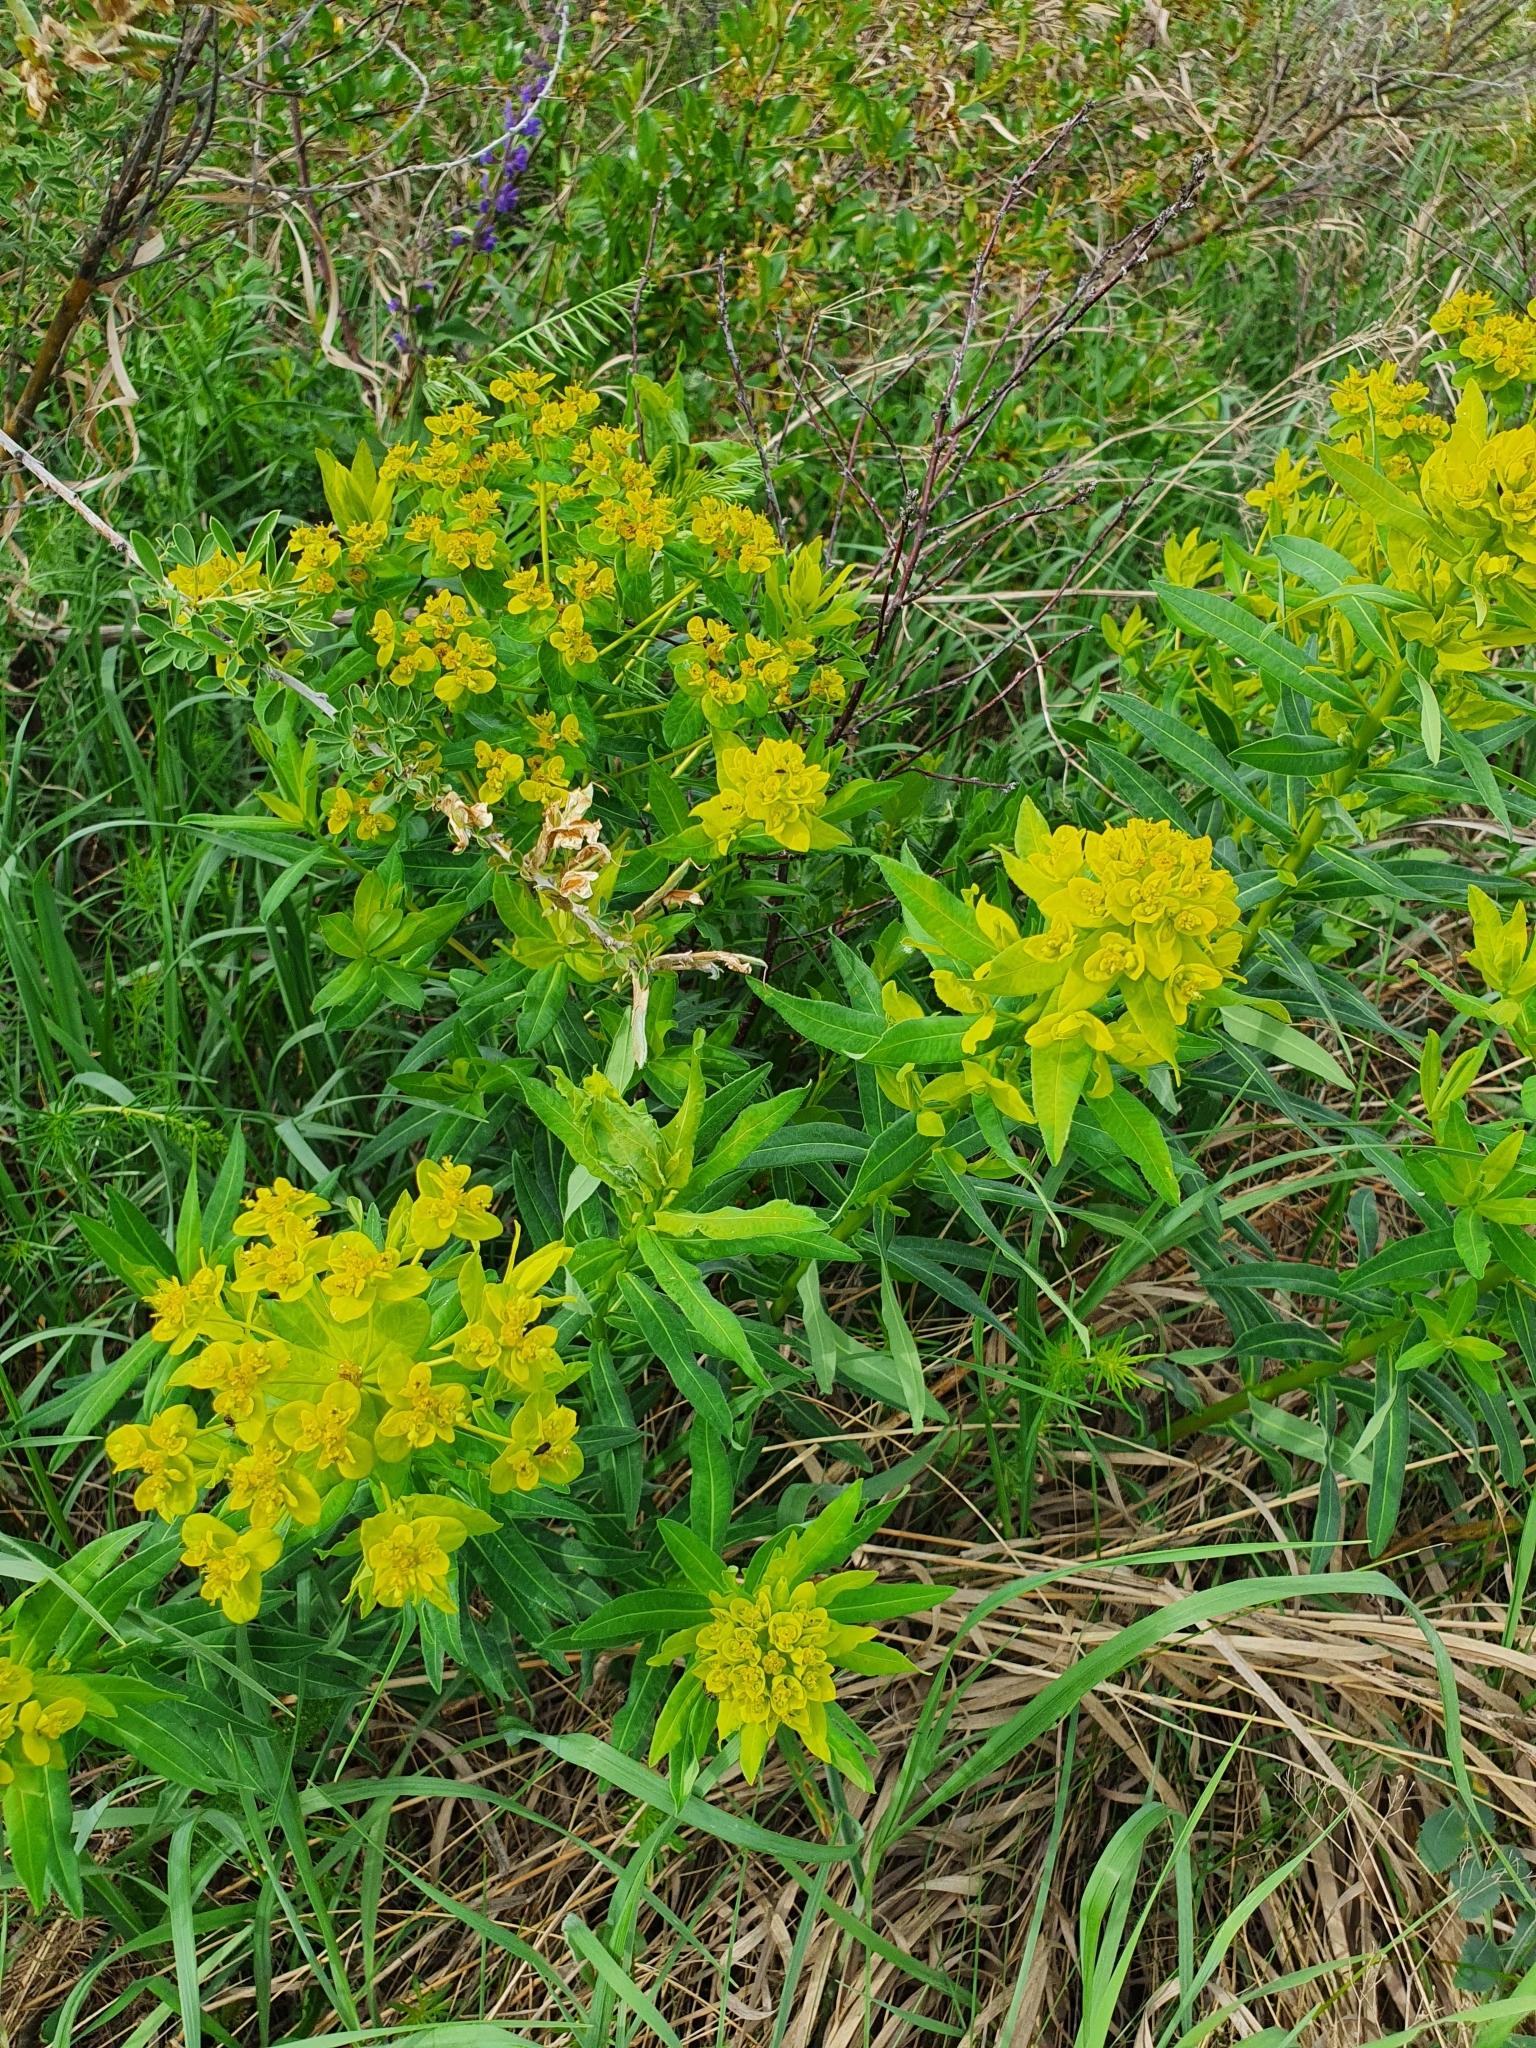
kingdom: Plantae
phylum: Tracheophyta
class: Magnoliopsida
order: Malpighiales
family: Euphorbiaceae
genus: Euphorbia
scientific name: Euphorbia semivillosa
